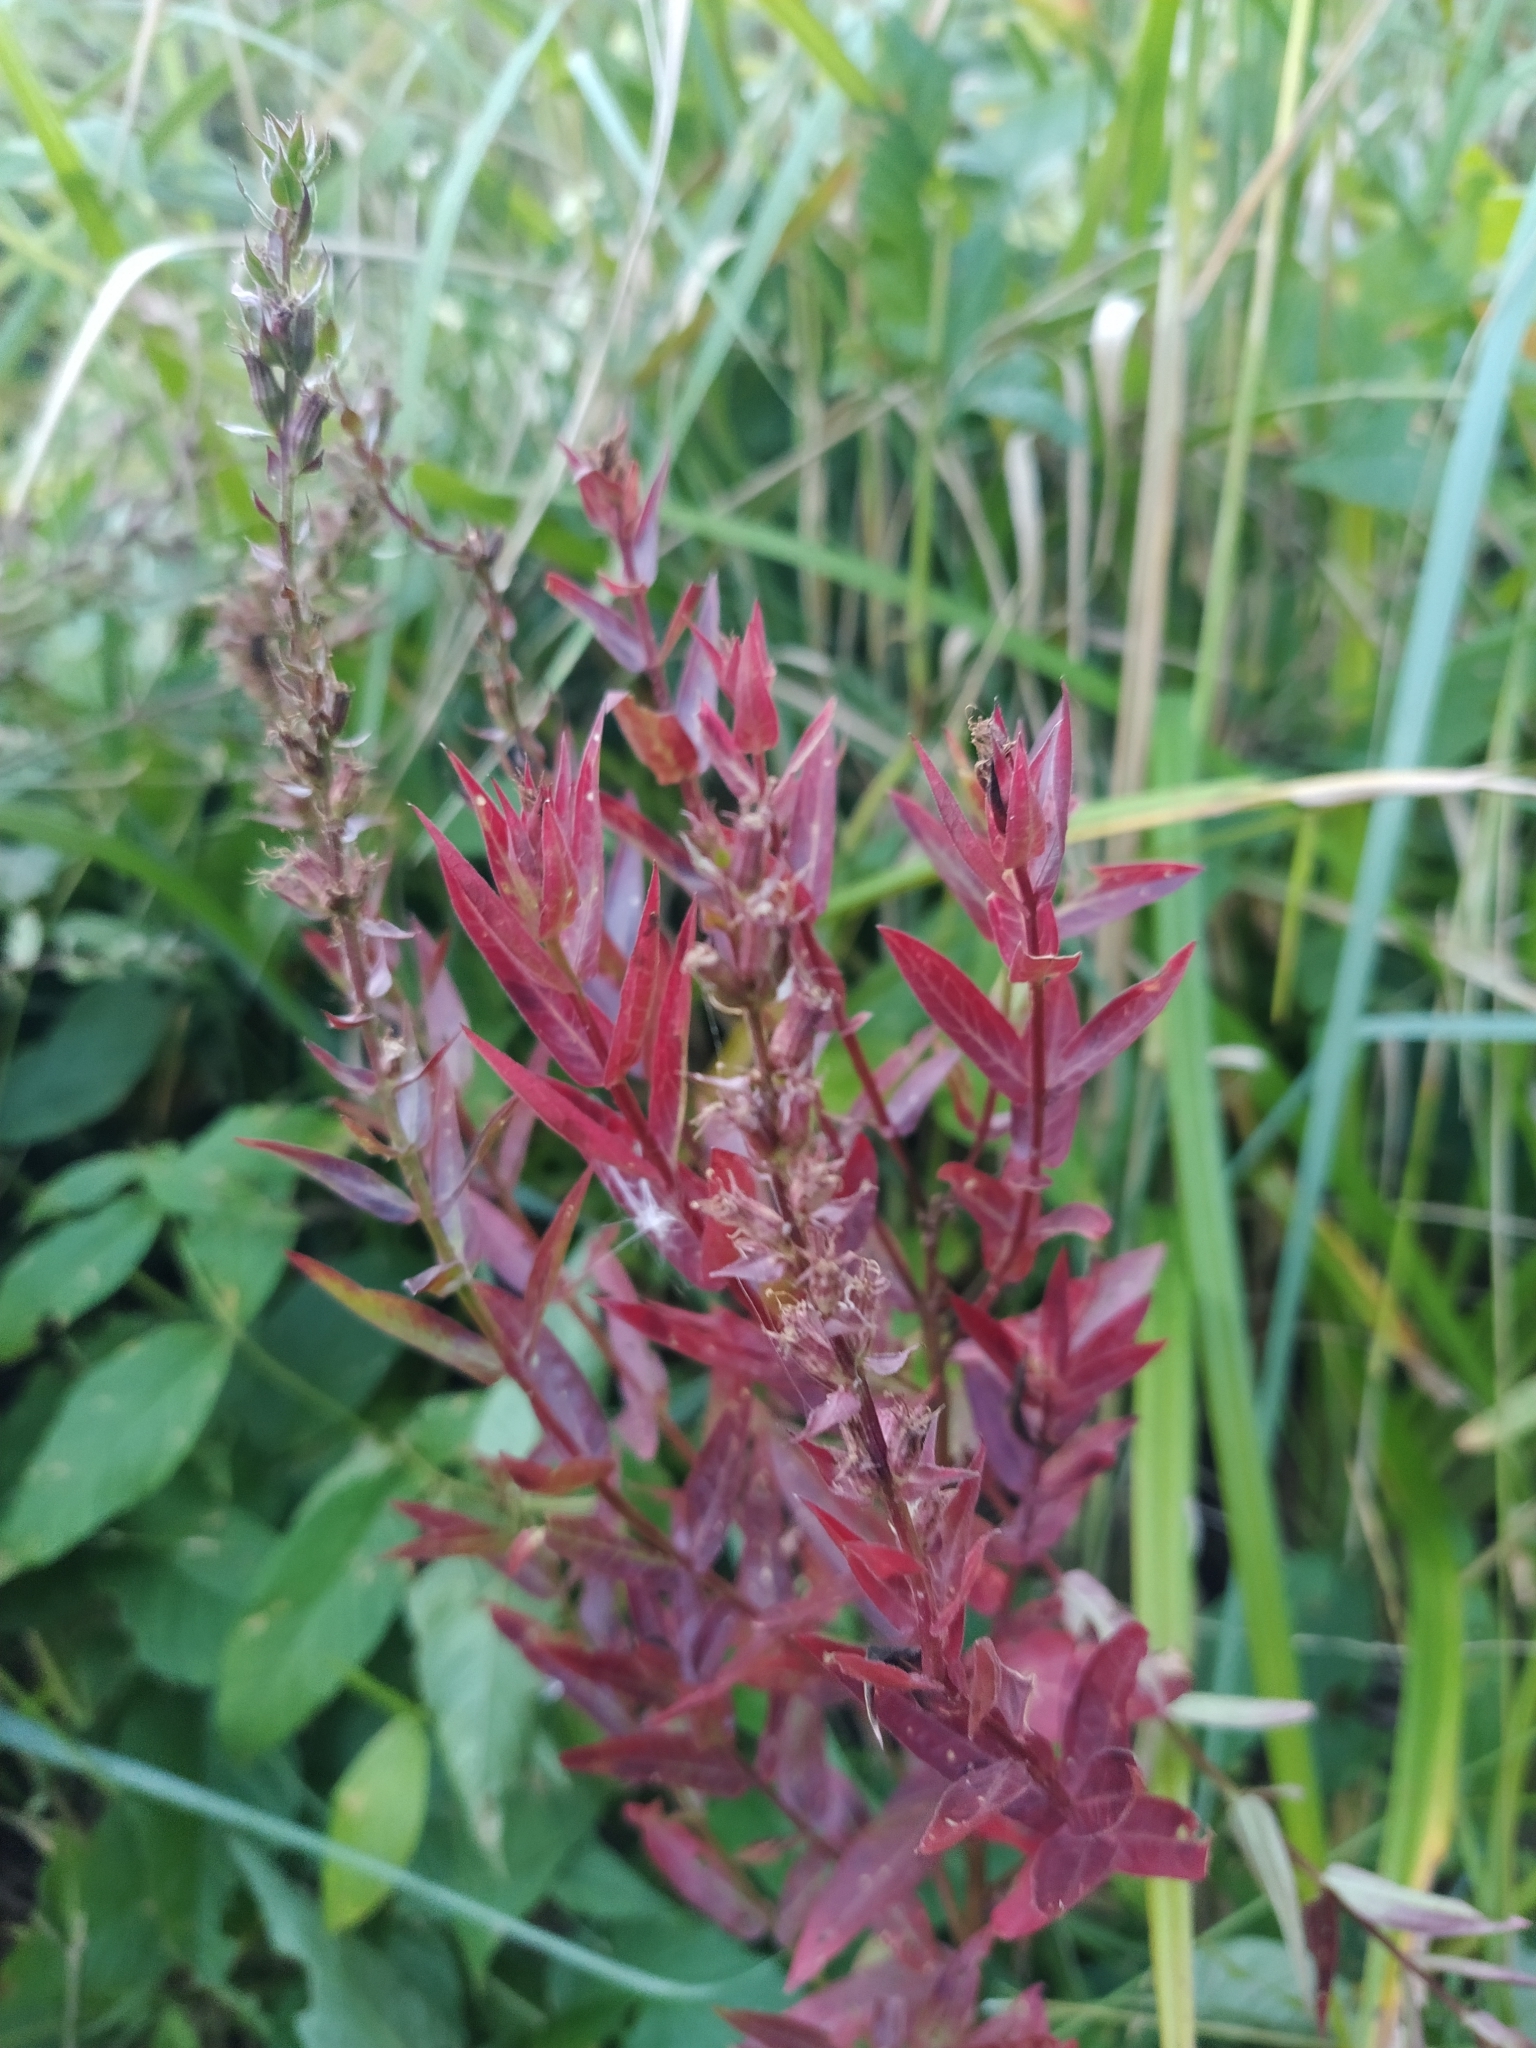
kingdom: Plantae
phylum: Tracheophyta
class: Magnoliopsida
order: Myrtales
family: Lythraceae
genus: Lythrum
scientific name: Lythrum salicaria
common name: Purple loosestrife
